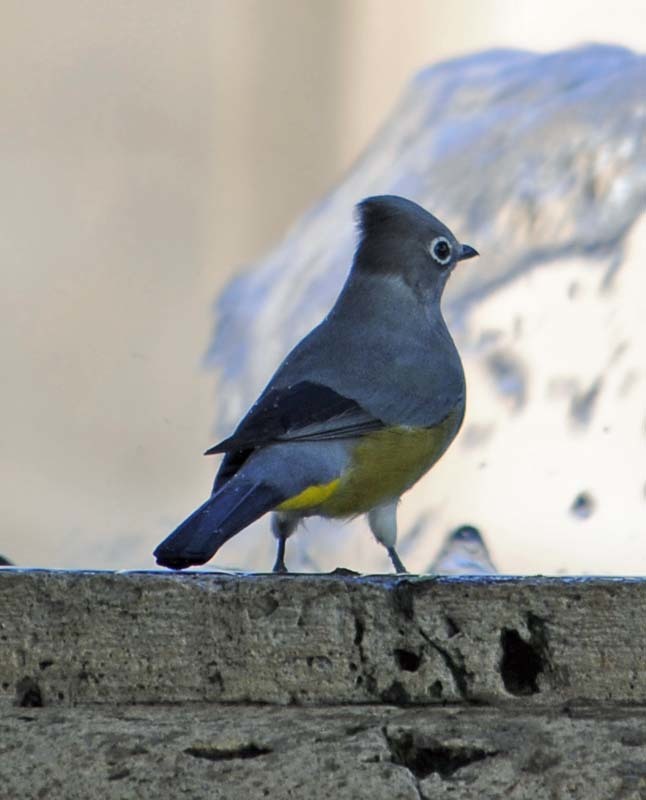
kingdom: Animalia
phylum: Chordata
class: Aves
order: Passeriformes
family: Ptilogonatidae
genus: Ptilogonys
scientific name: Ptilogonys cinereus
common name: Gray silky-flycatcher
